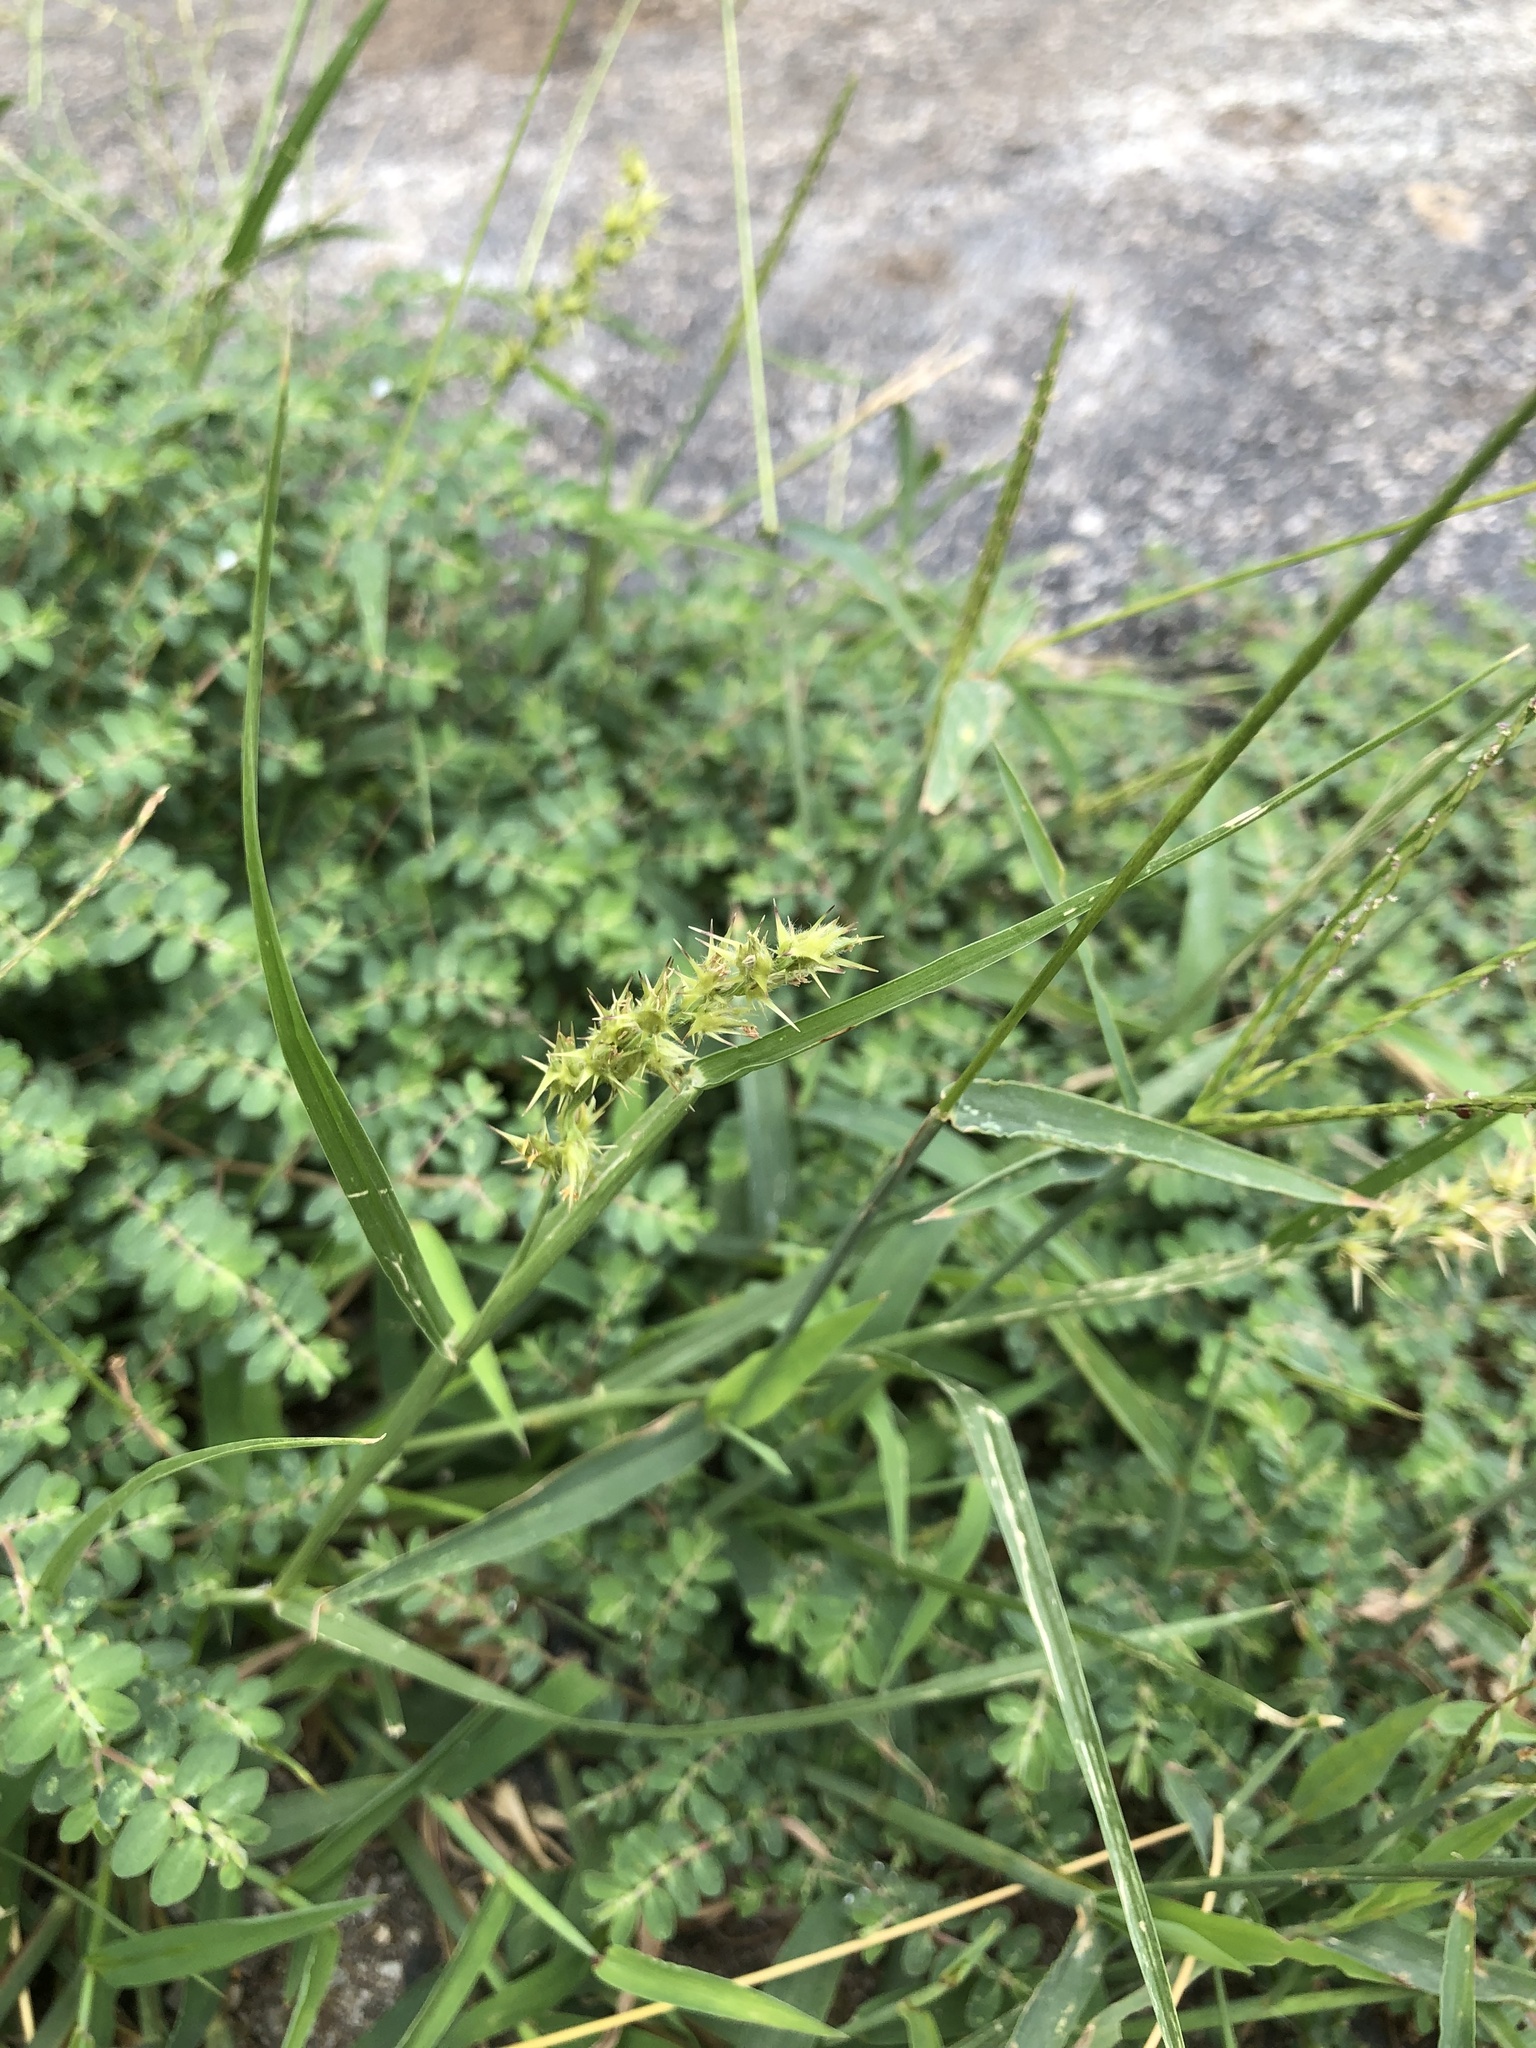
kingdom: Plantae
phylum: Tracheophyta
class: Liliopsida
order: Poales
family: Poaceae
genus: Cenchrus
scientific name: Cenchrus spinifex
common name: Coast sandbur
